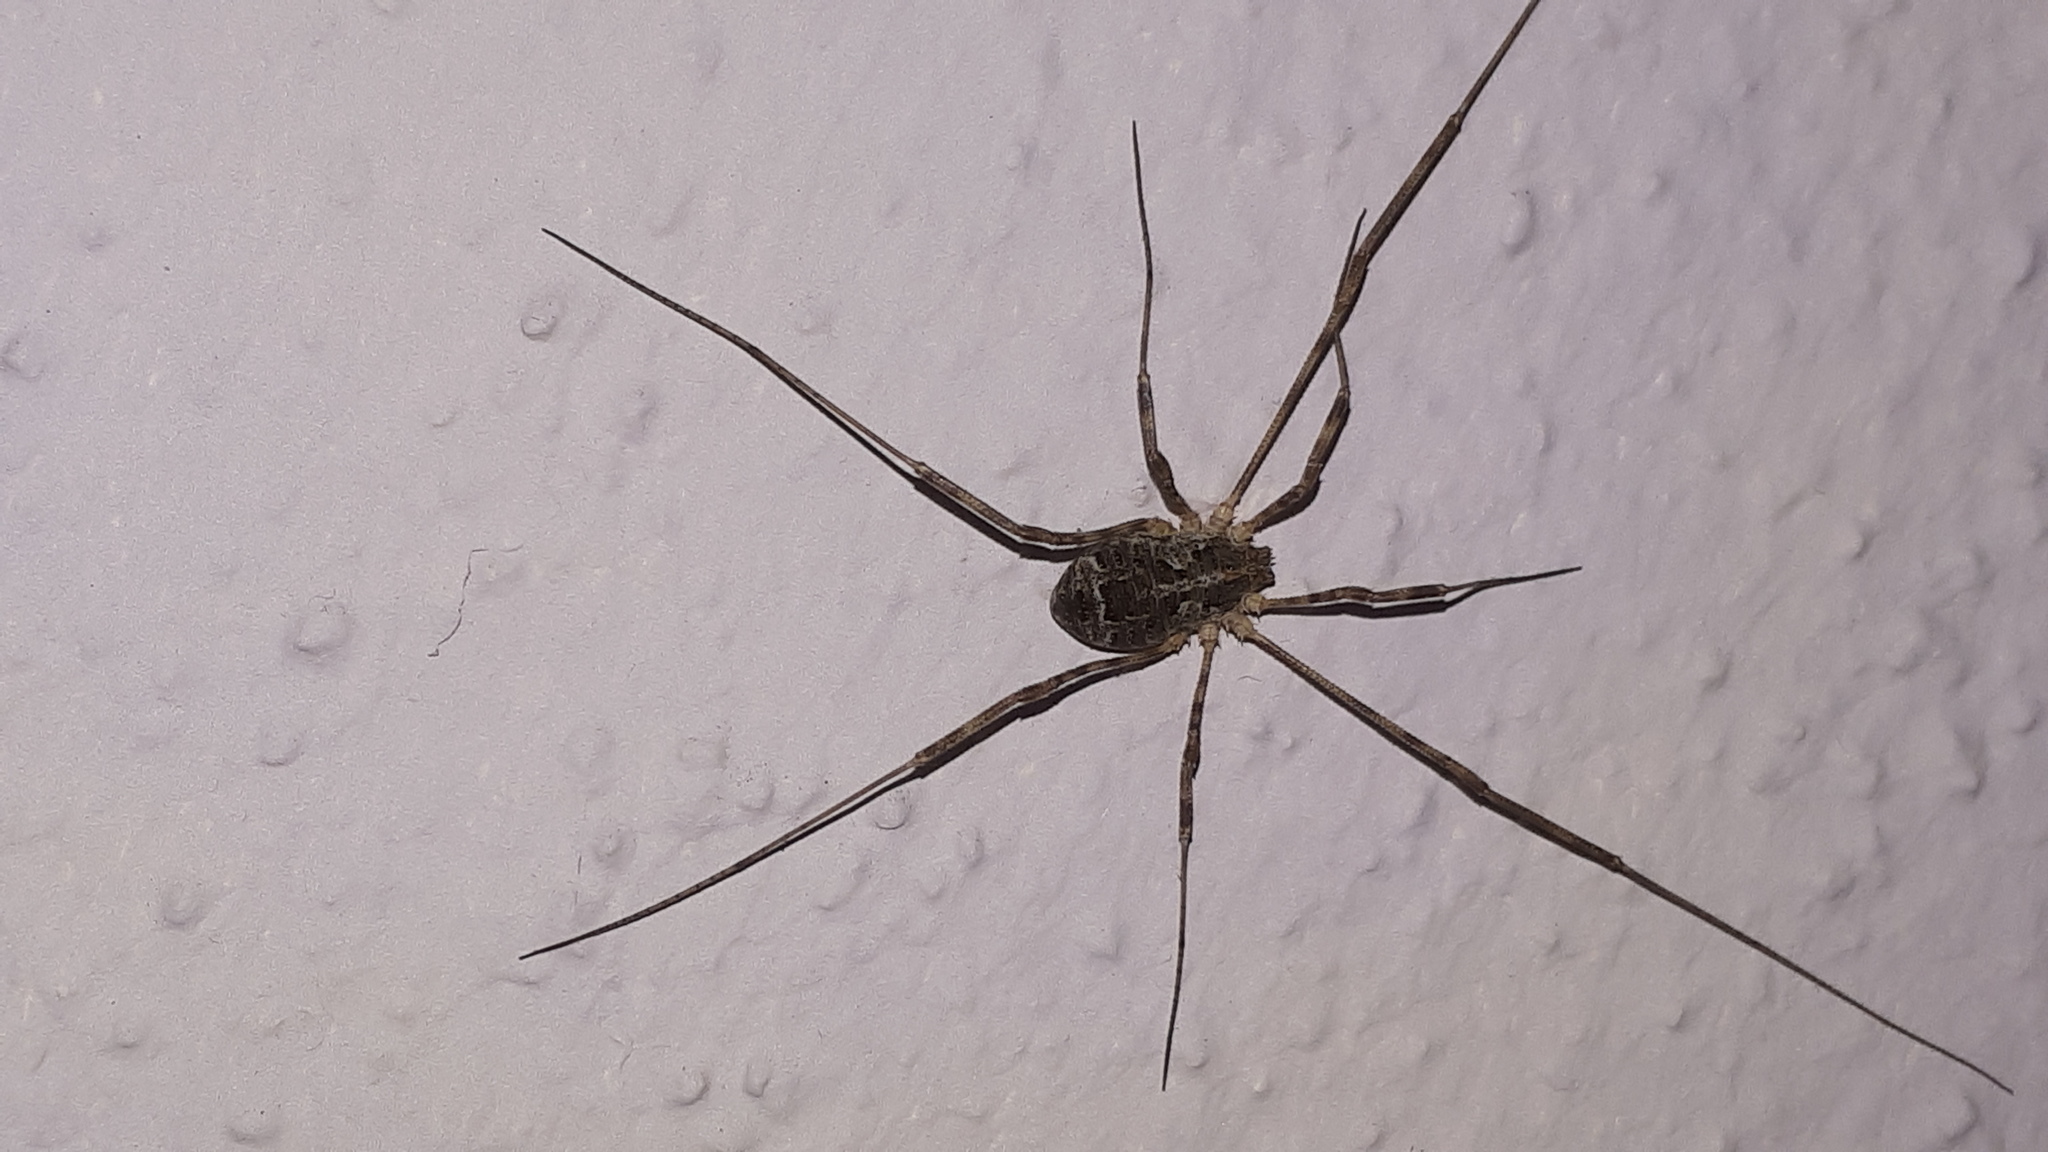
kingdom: Animalia
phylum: Arthropoda
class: Arachnida
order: Opiliones
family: Phalangiidae
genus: Lacinius
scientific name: Lacinius dentiger
